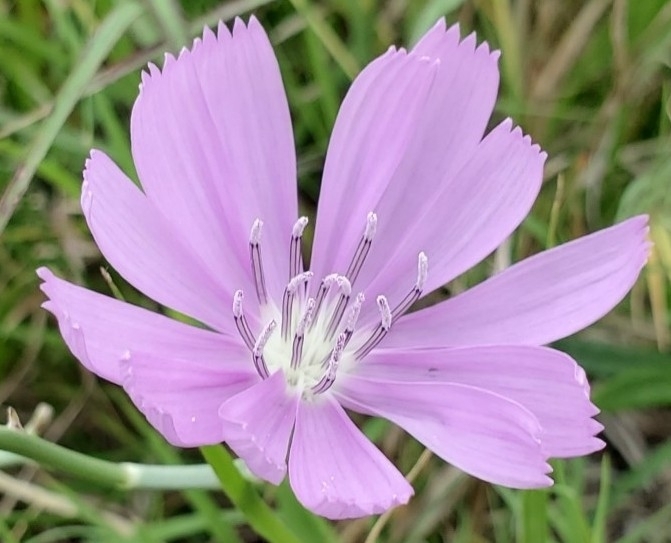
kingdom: Plantae
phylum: Tracheophyta
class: Magnoliopsida
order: Asterales
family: Asteraceae
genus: Lygodesmia
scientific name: Lygodesmia texana
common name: Texas skeleton-plant
